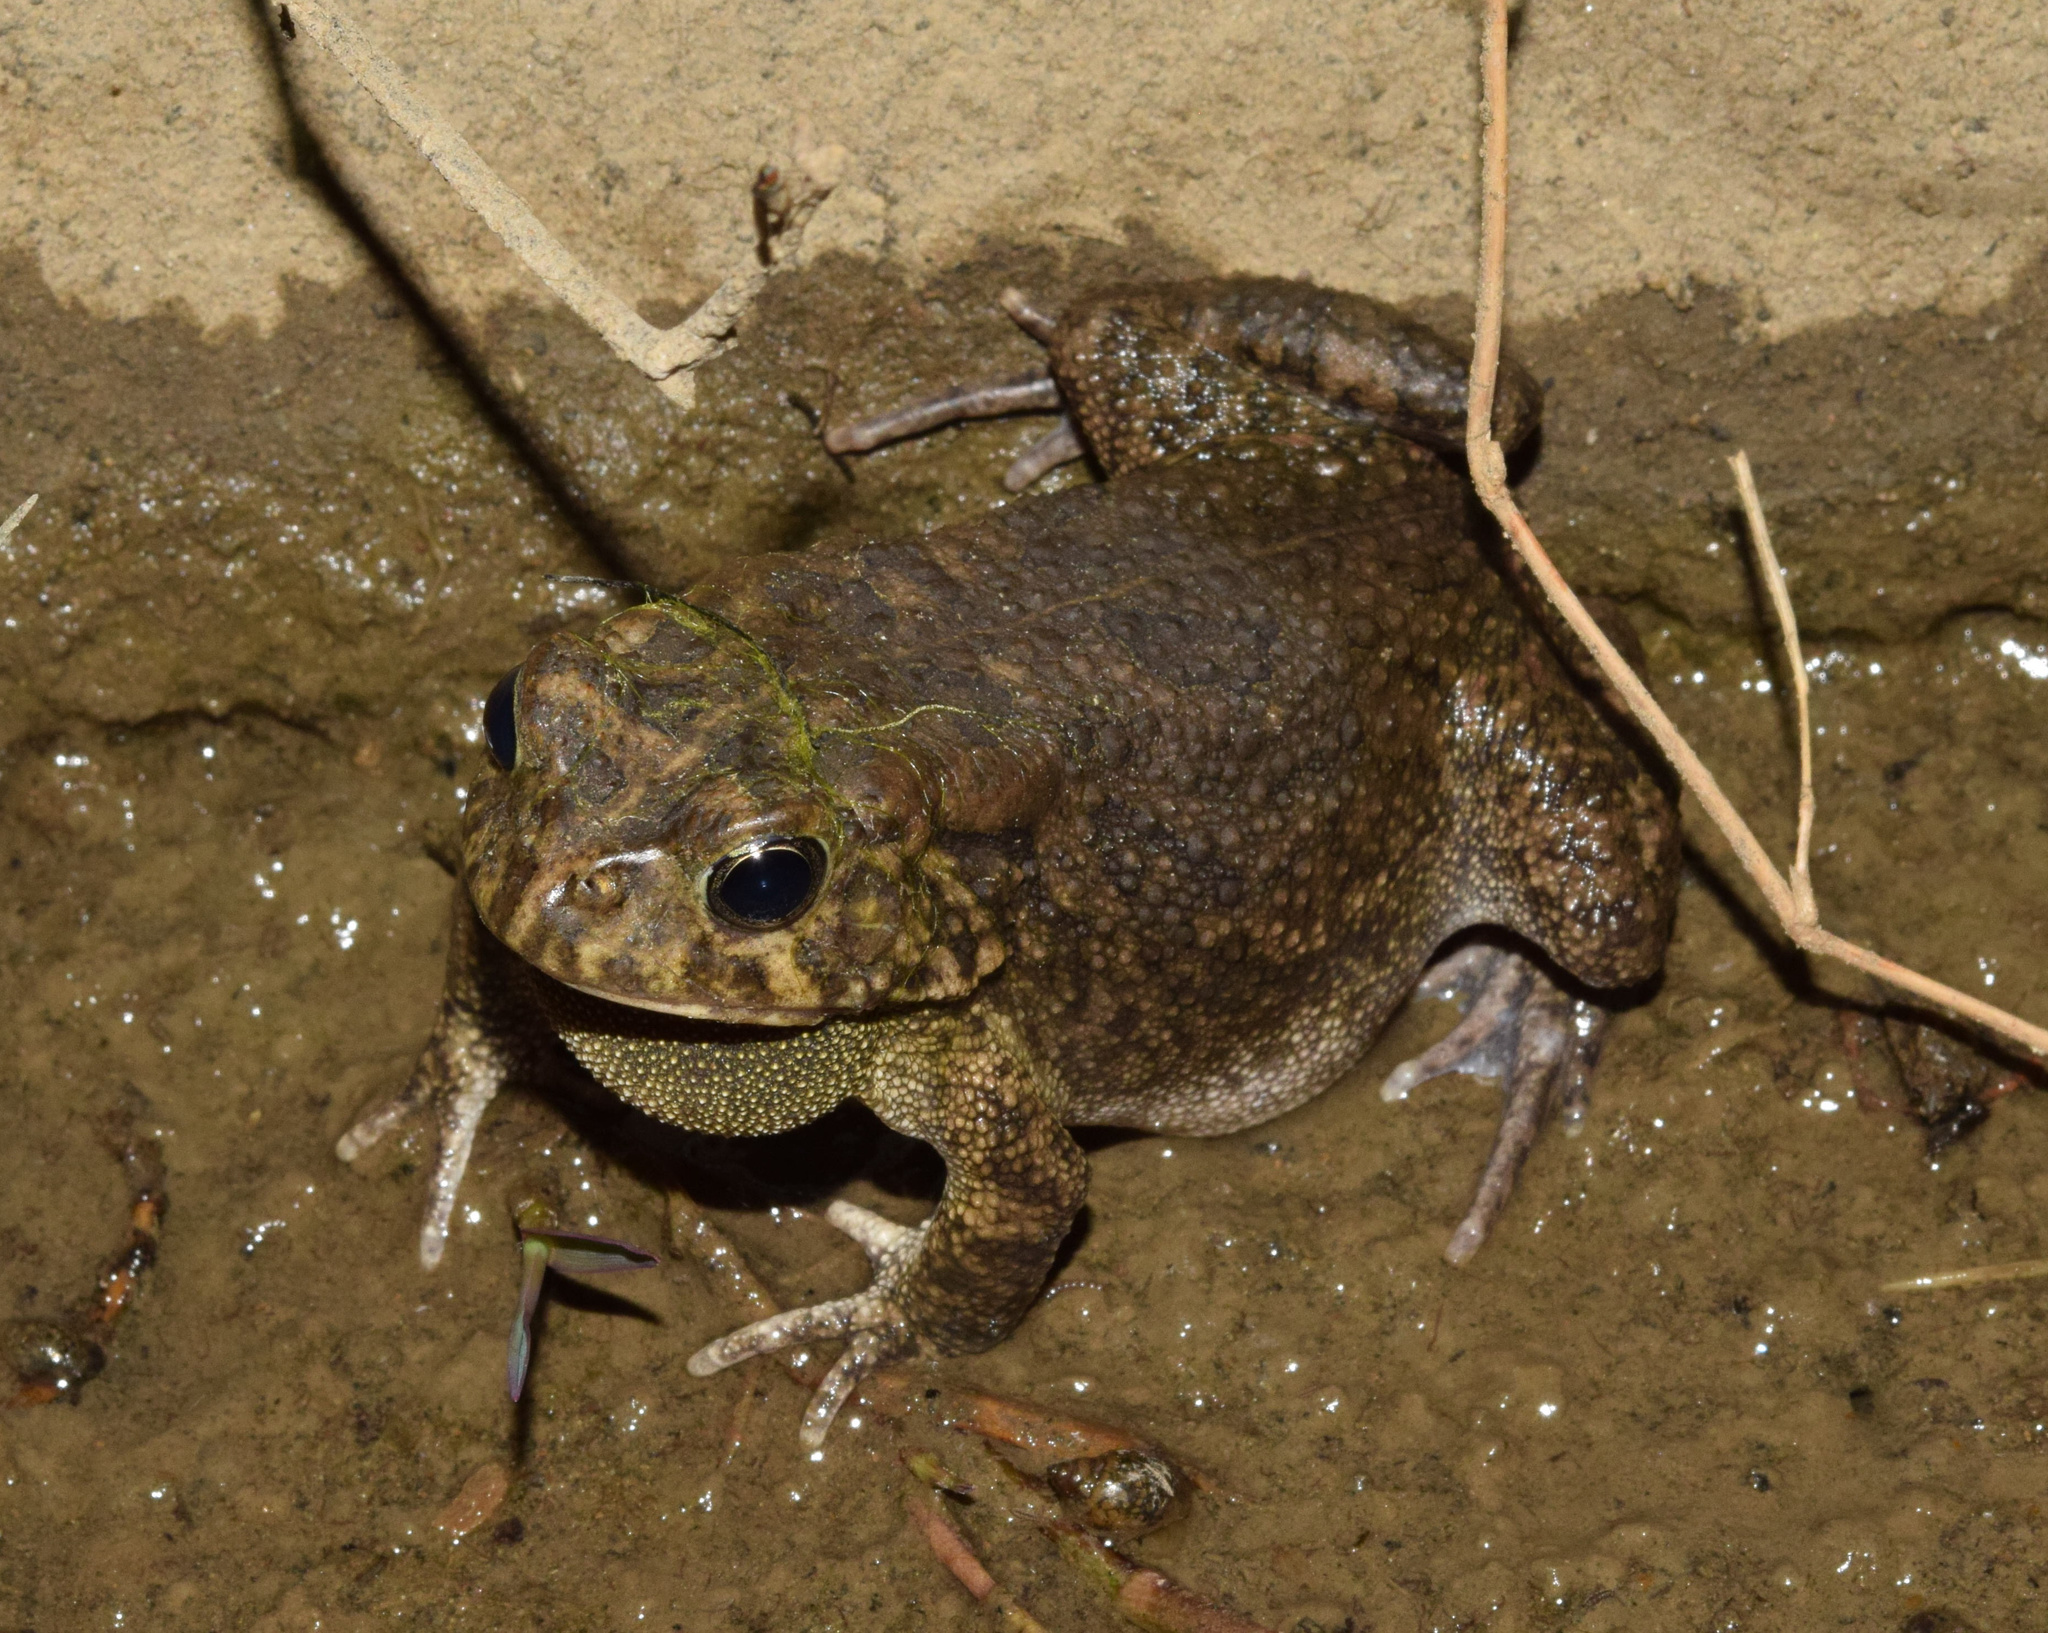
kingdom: Animalia
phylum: Chordata
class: Amphibia
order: Anura
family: Bufonidae
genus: Sclerophrys
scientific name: Sclerophrys gutturalis
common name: African common toad
